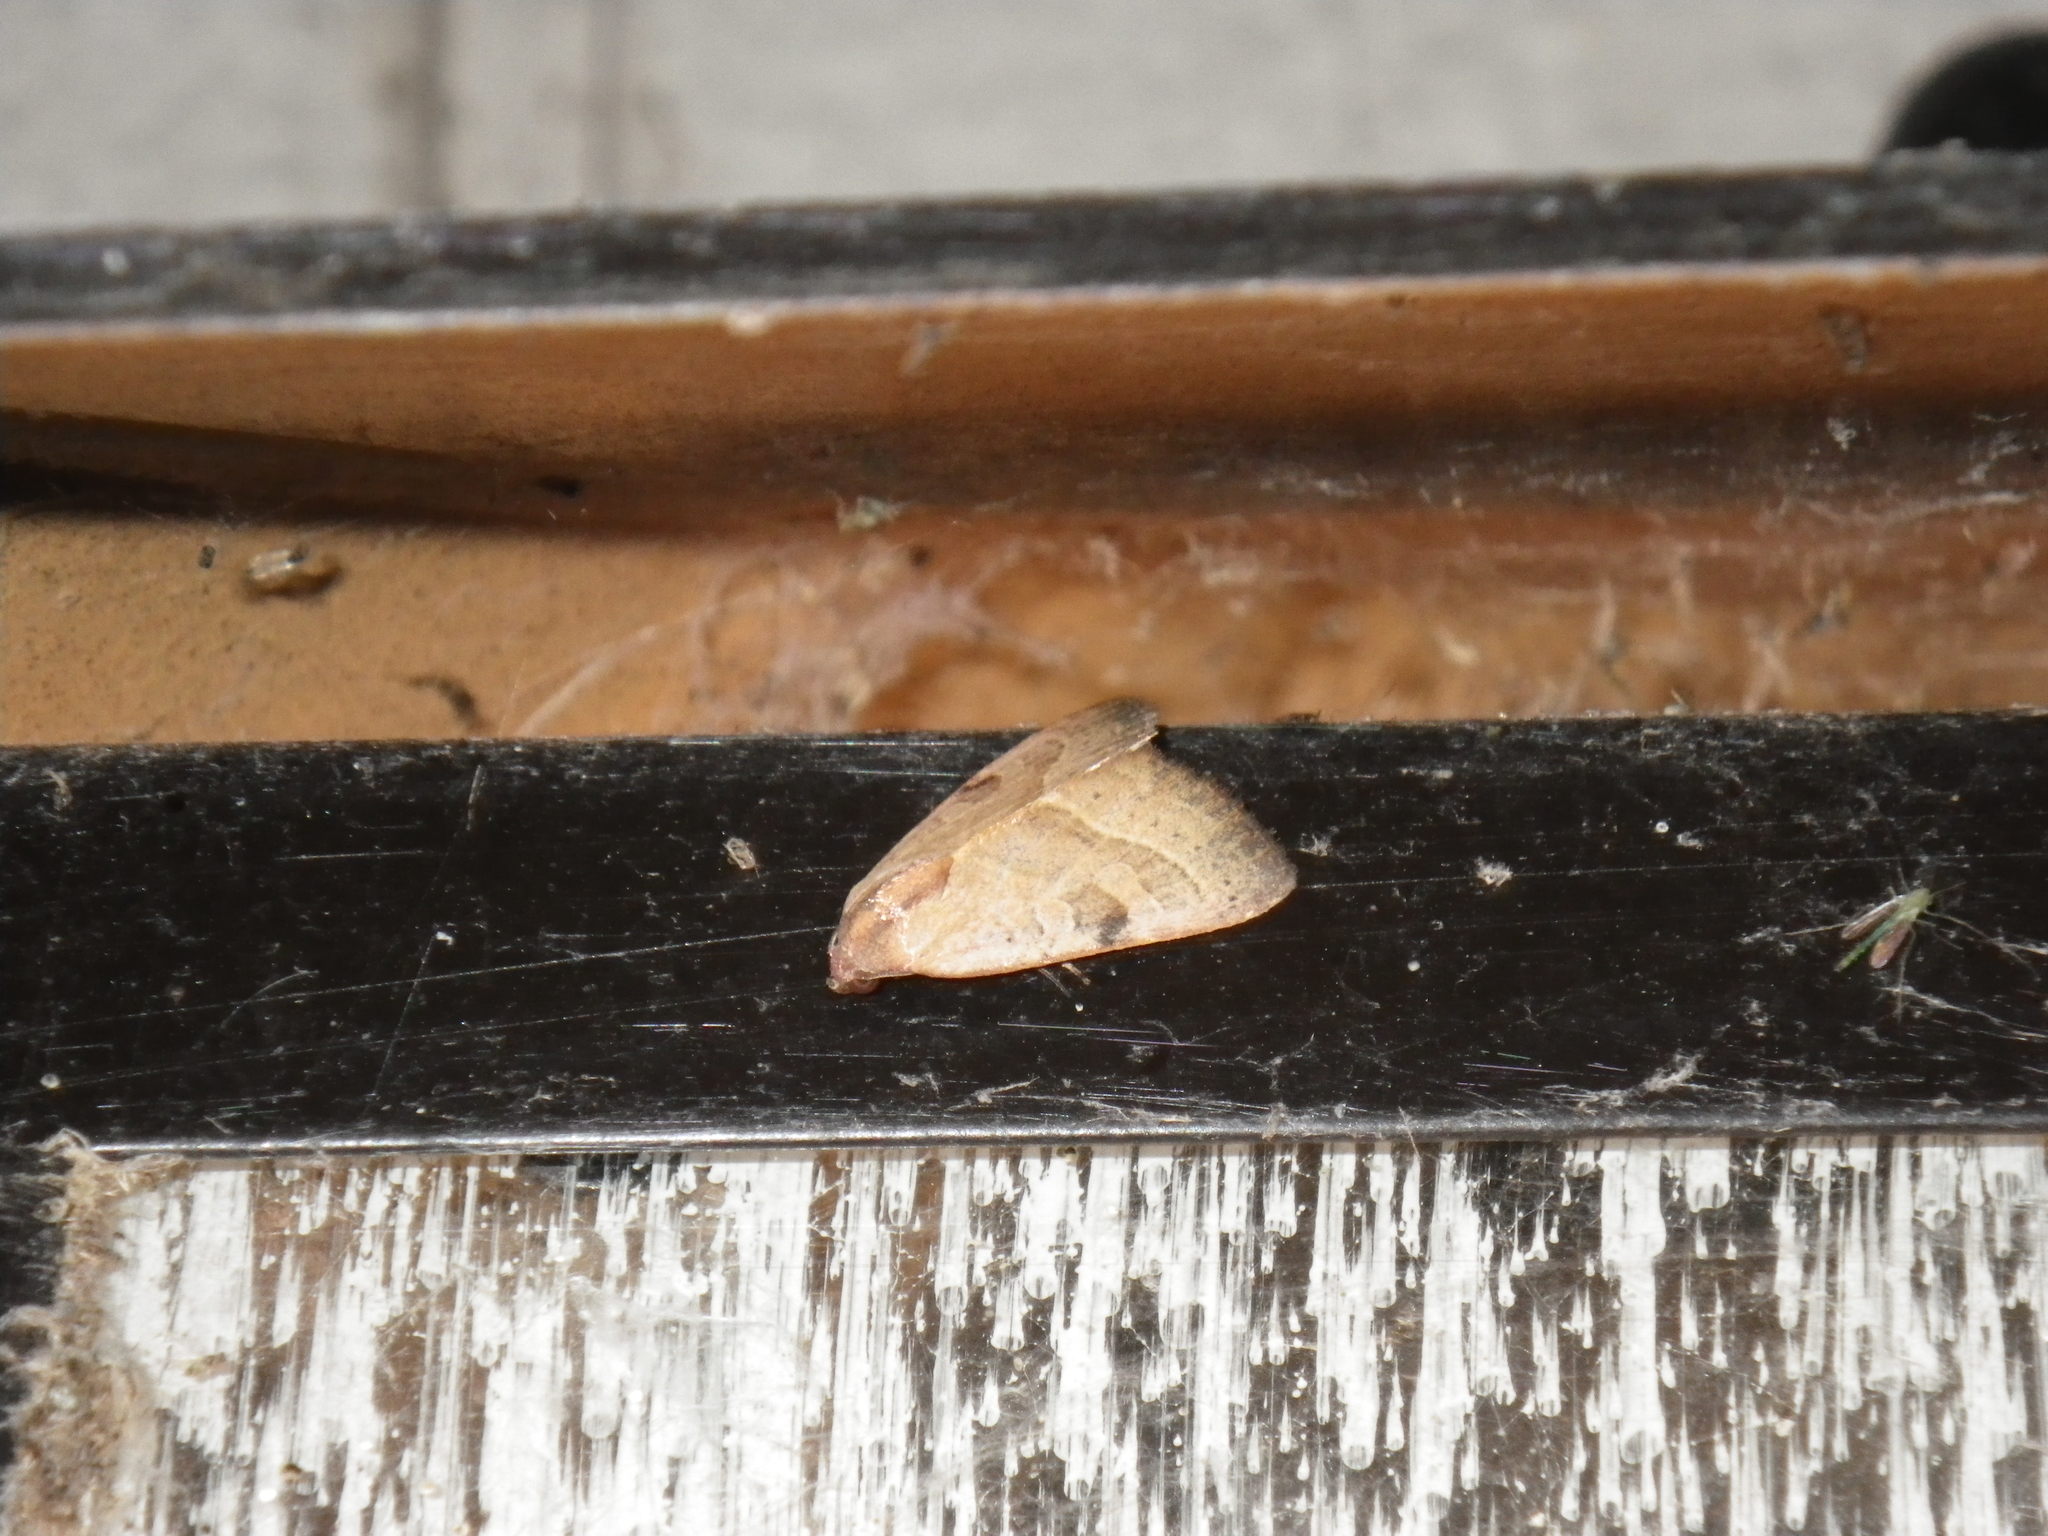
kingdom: Animalia
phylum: Arthropoda
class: Insecta
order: Lepidoptera
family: Noctuidae
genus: Galgula
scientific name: Galgula partita
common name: Wedgeling
